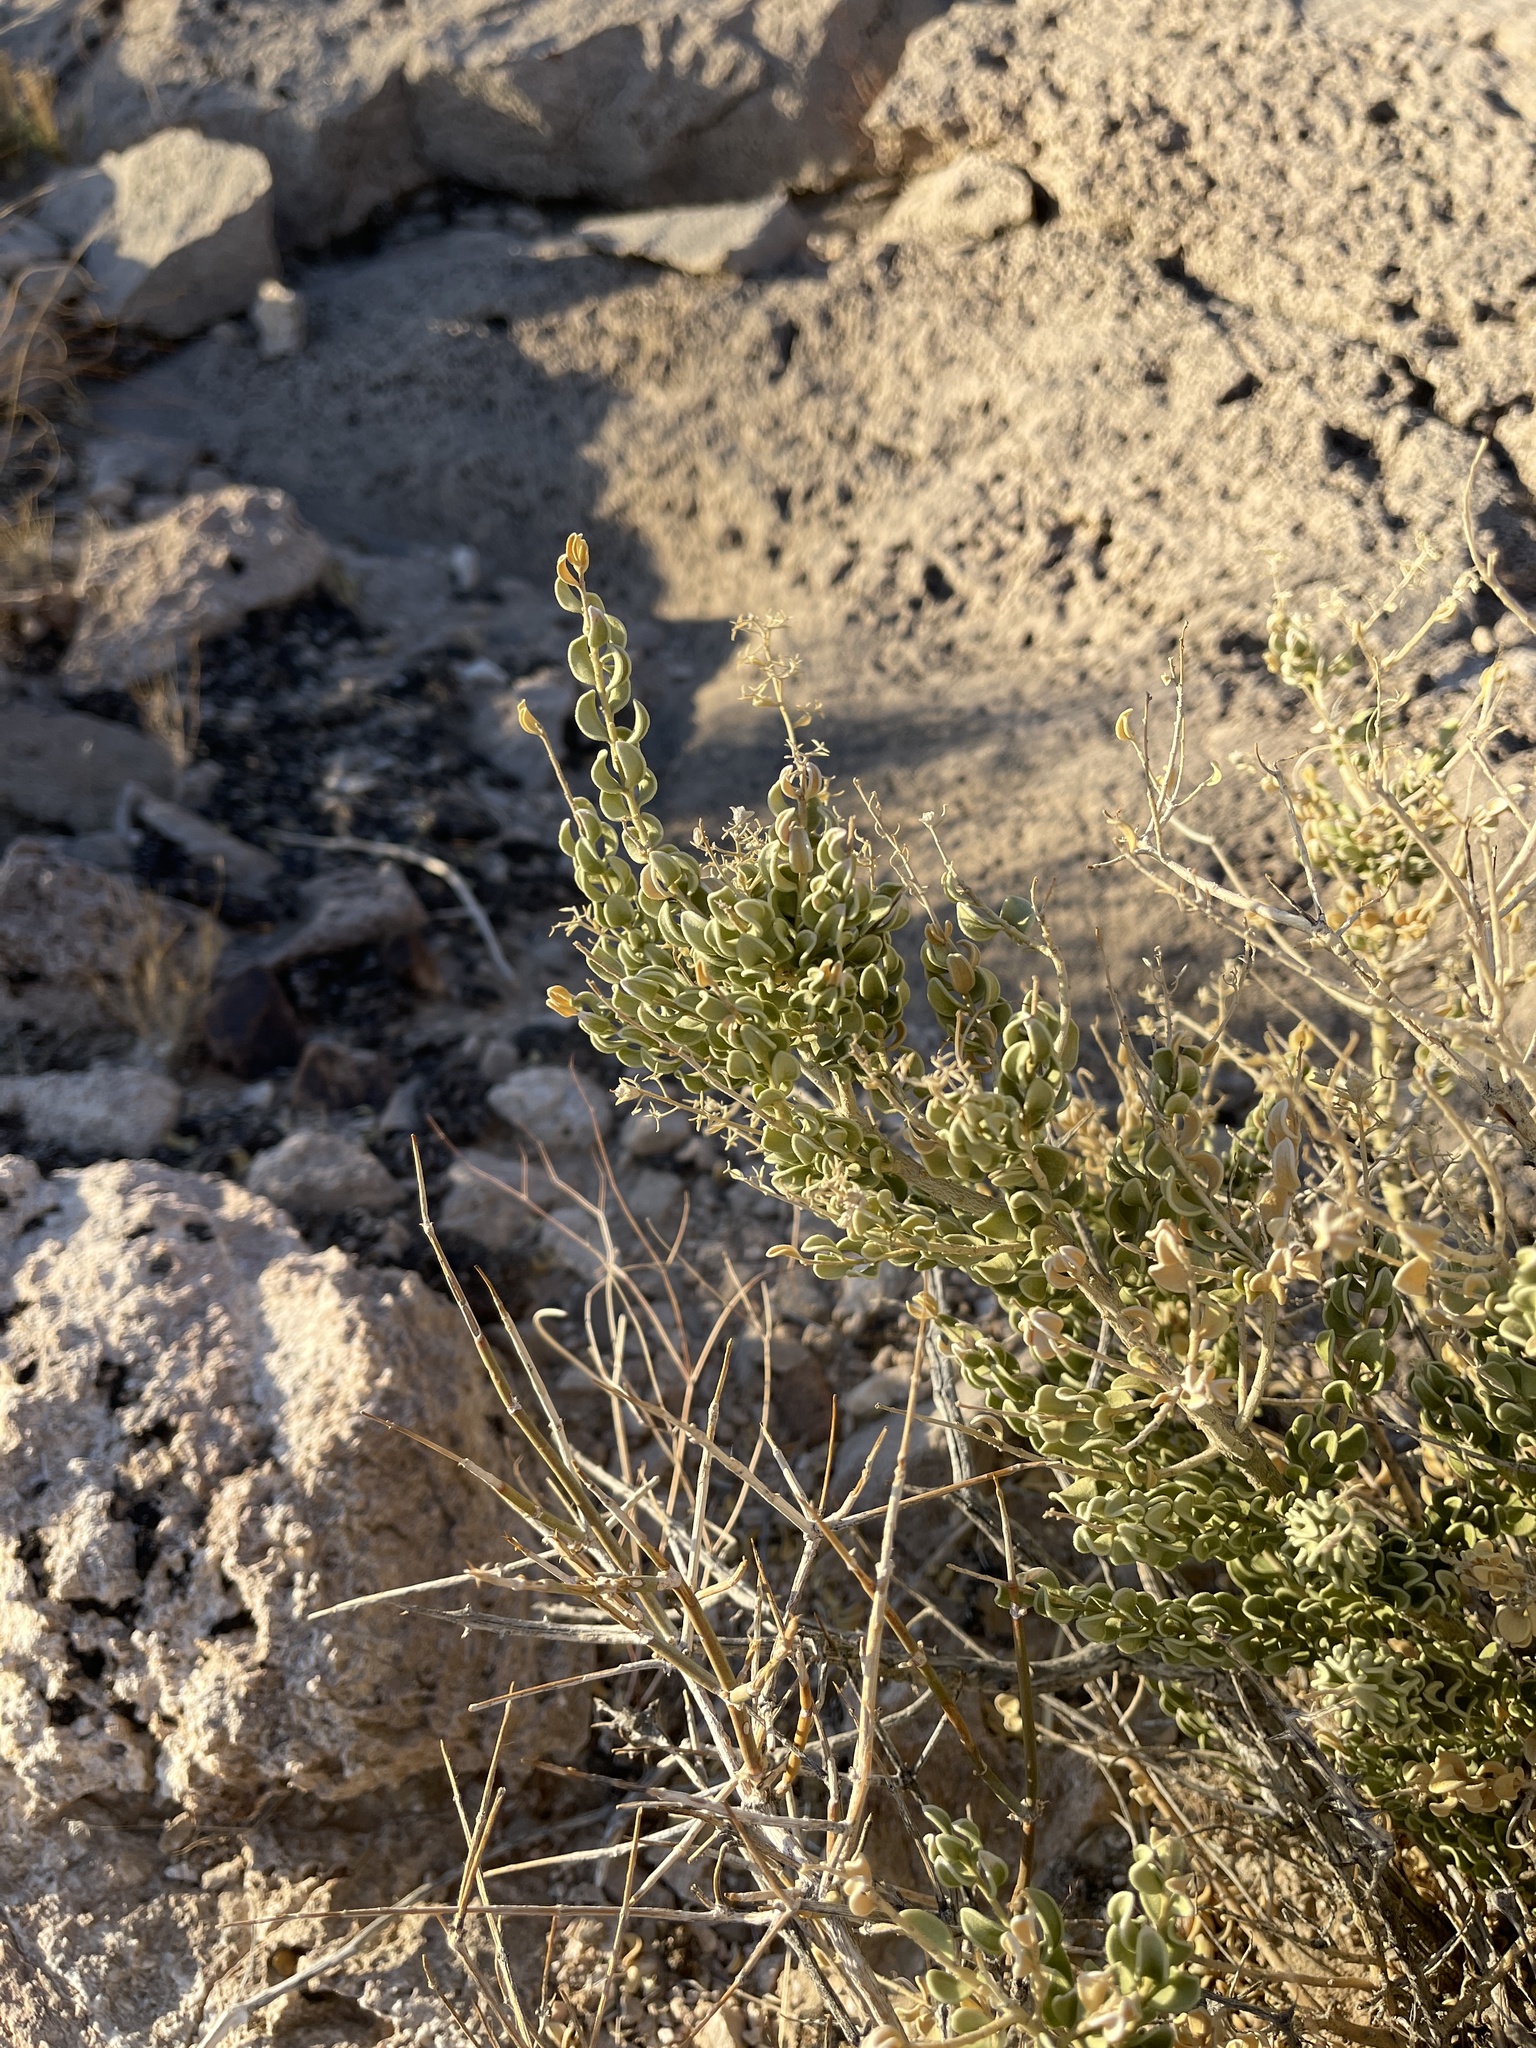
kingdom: Plantae
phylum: Tracheophyta
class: Magnoliopsida
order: Celastrales
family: Celastraceae
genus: Mortonia
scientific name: Mortonia utahensis
